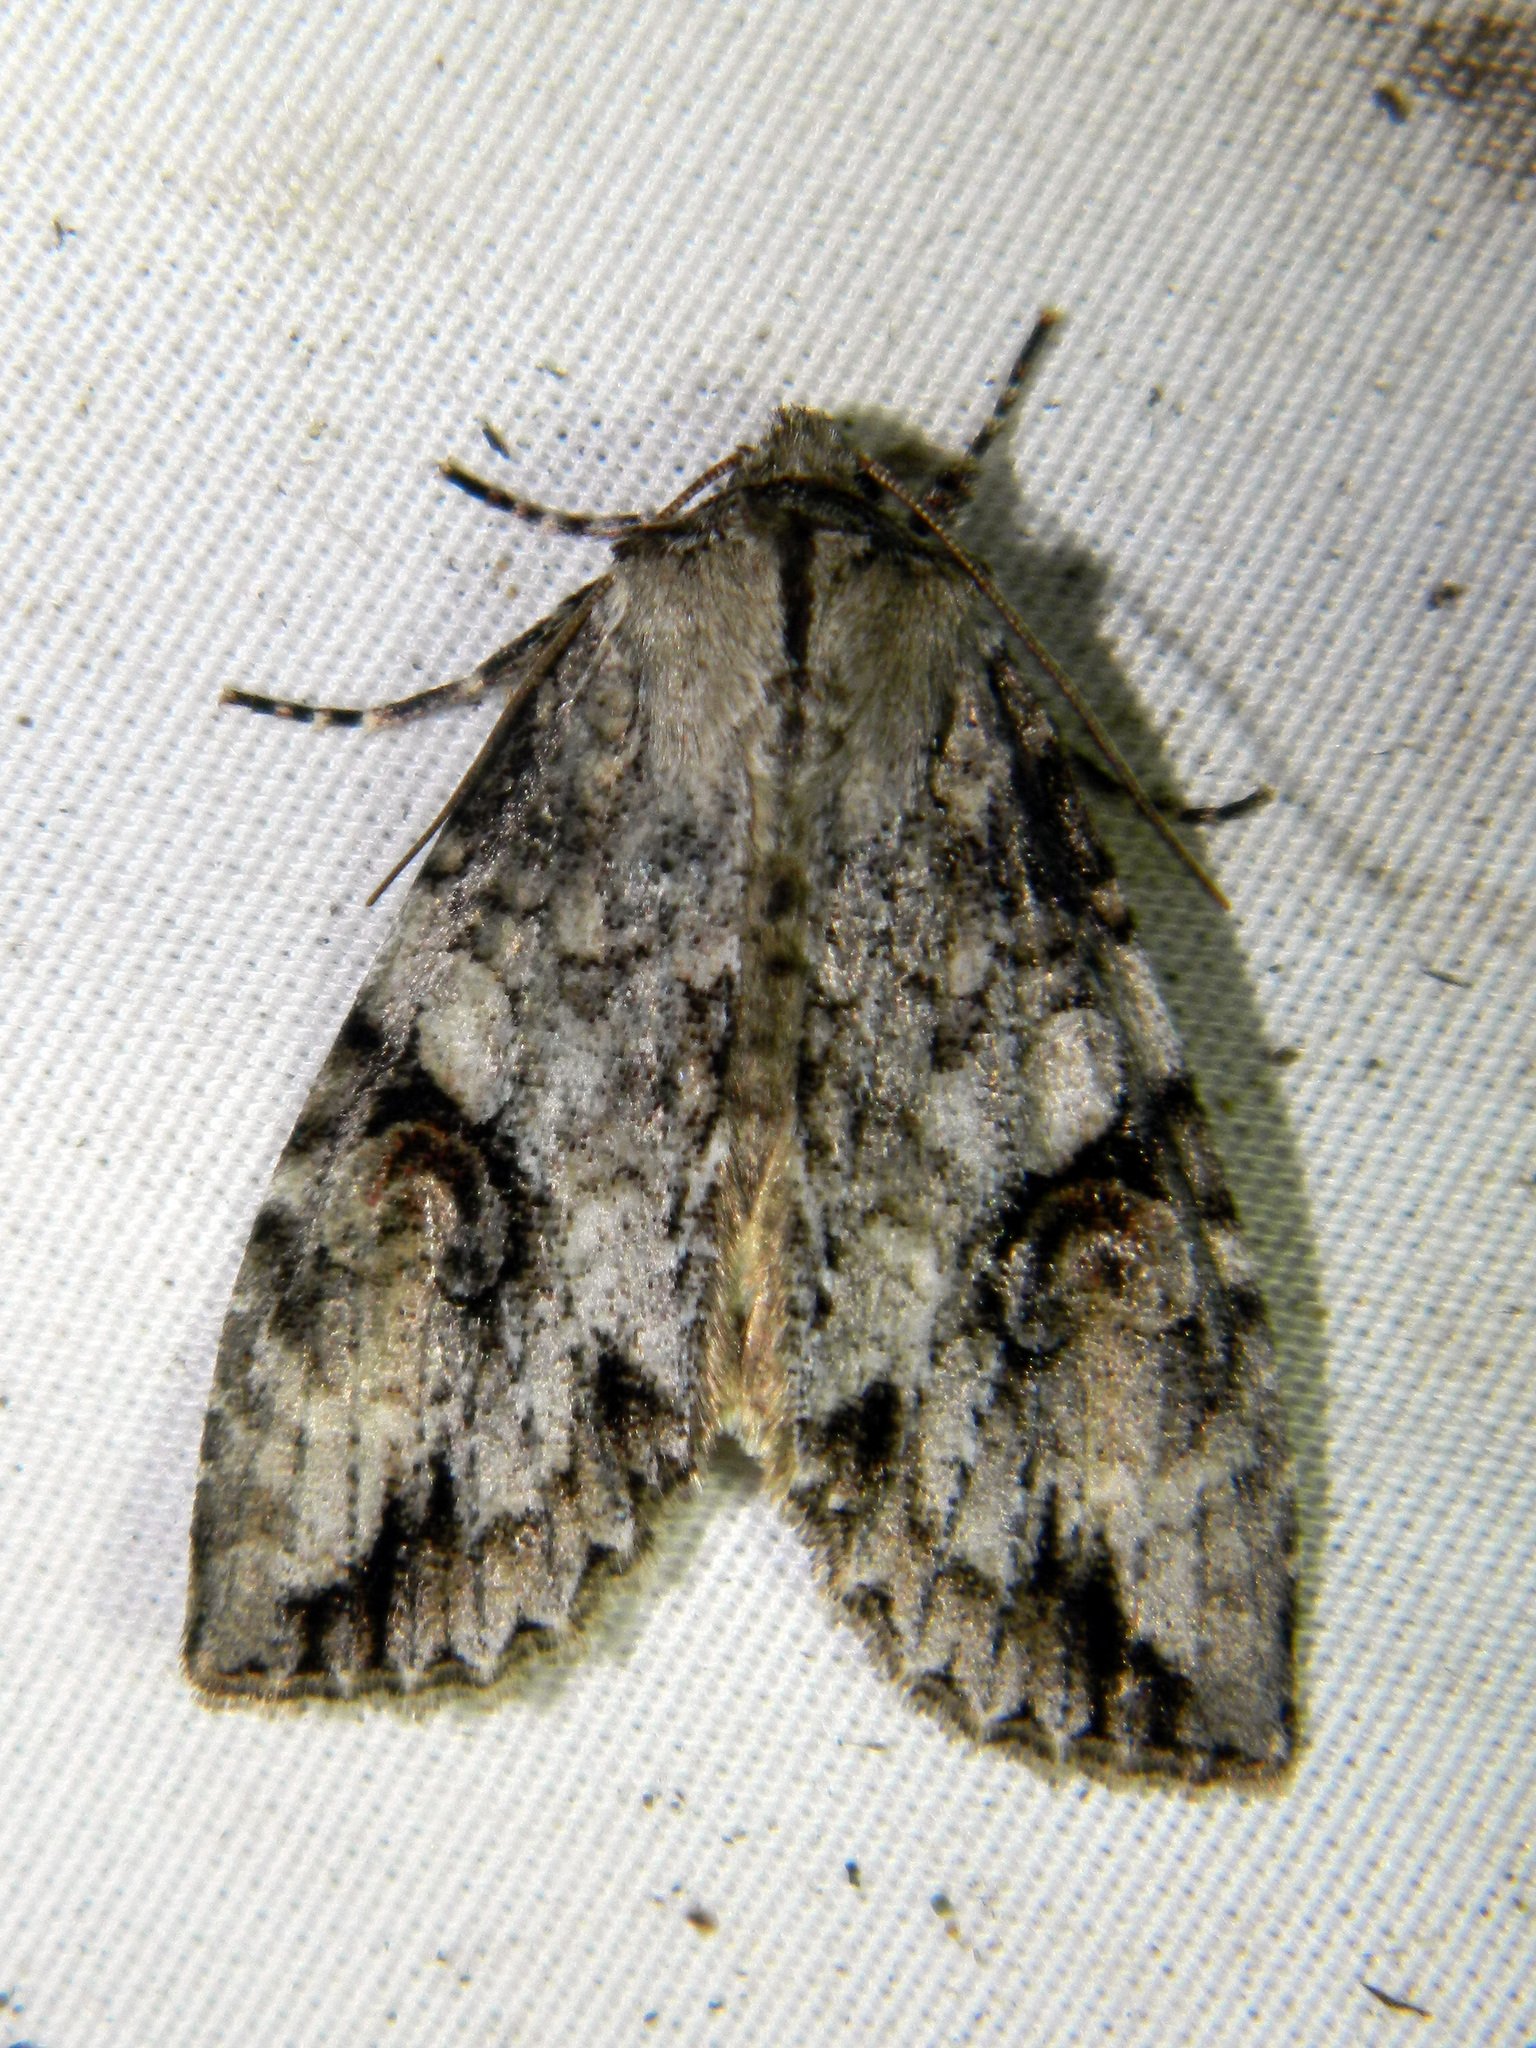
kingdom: Animalia
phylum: Arthropoda
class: Insecta
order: Lepidoptera
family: Noctuidae
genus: Achatia
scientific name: Achatia latex
